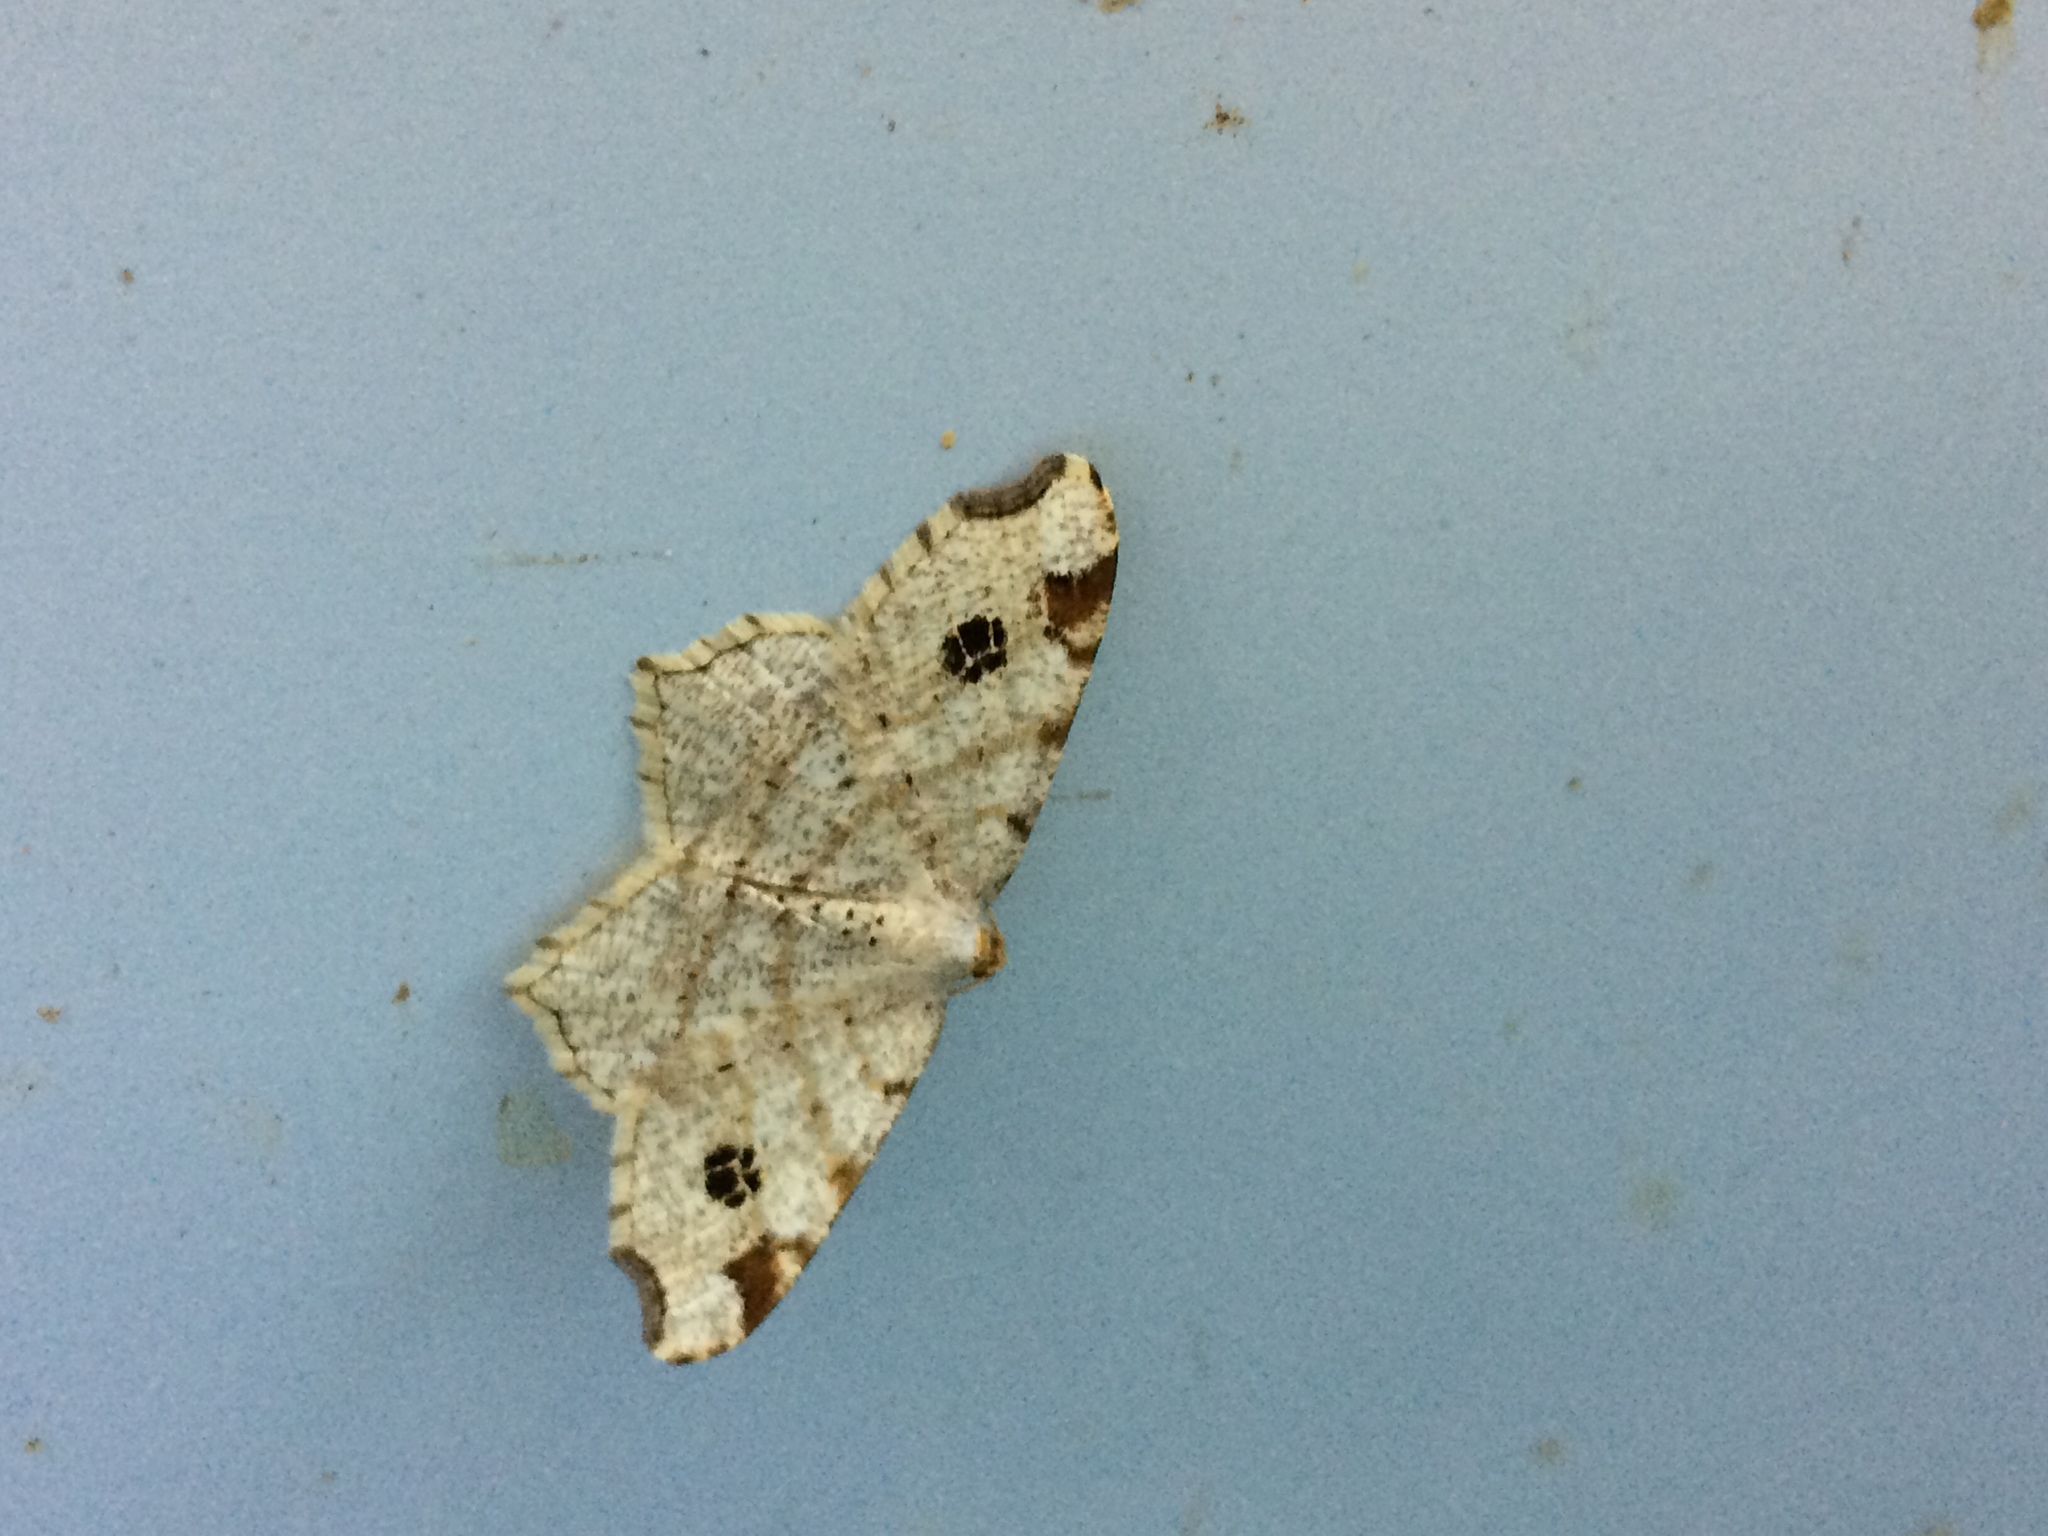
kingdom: Animalia
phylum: Arthropoda
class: Insecta
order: Lepidoptera
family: Geometridae
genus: Macaria
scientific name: Macaria notata
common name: Peacock moth
